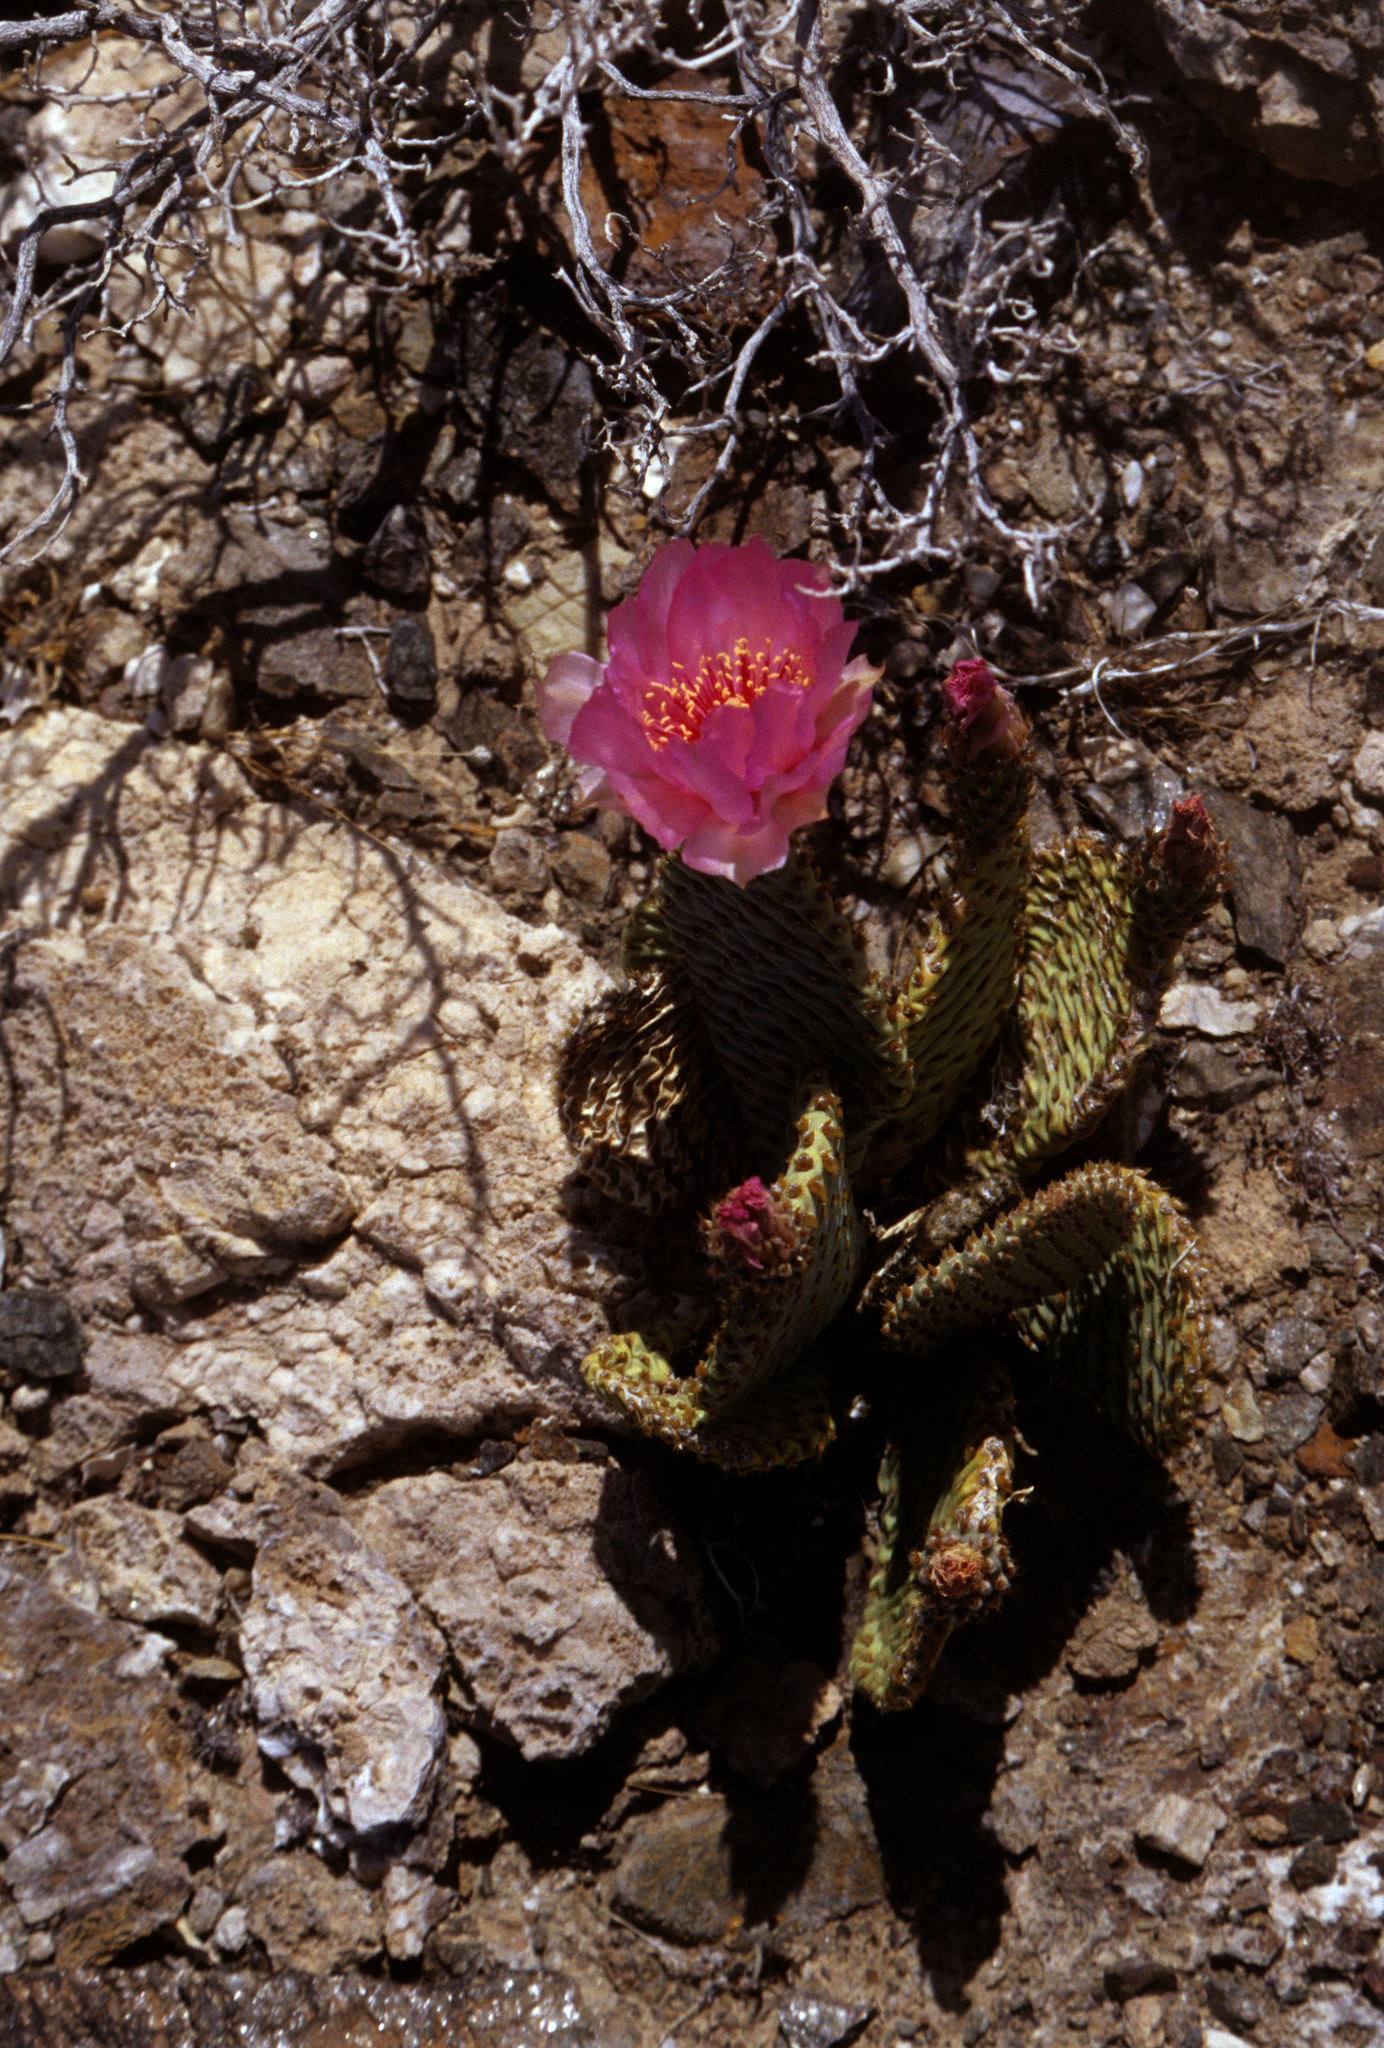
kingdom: Plantae
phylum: Tracheophyta
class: Magnoliopsida
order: Caryophyllales
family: Cactaceae
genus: Opuntia
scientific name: Opuntia basilaris
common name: Beavertail prickly-pear
